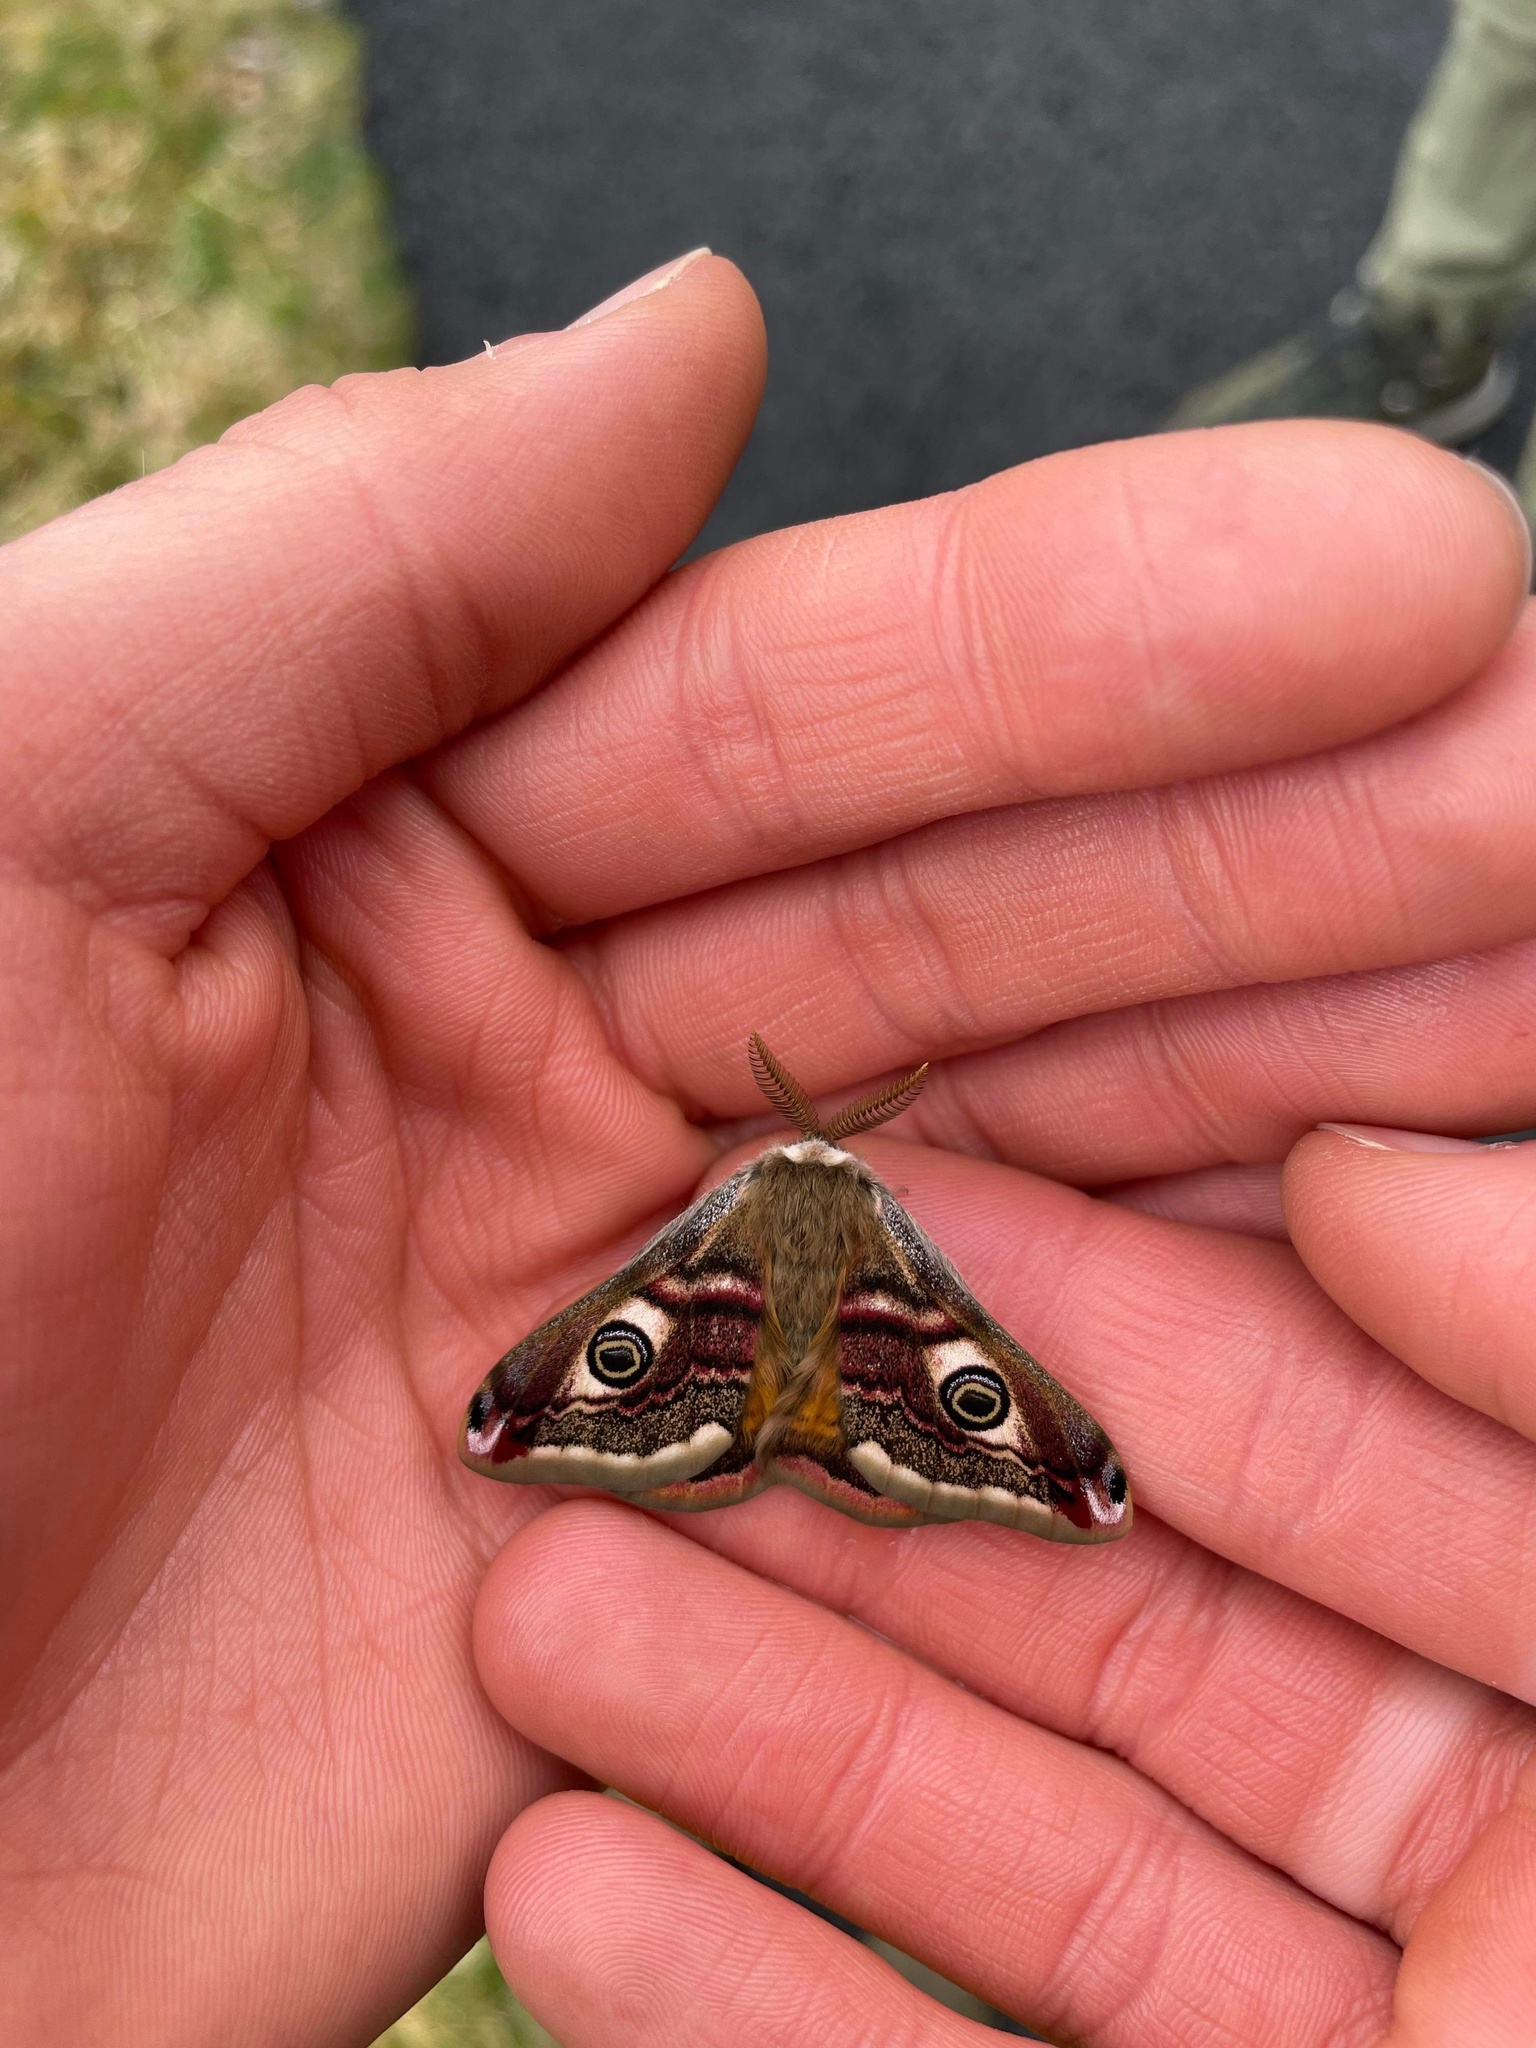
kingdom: Animalia
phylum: Arthropoda
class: Insecta
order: Lepidoptera
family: Saturniidae
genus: Saturnia
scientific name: Saturnia pavonia
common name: Emperor moth
